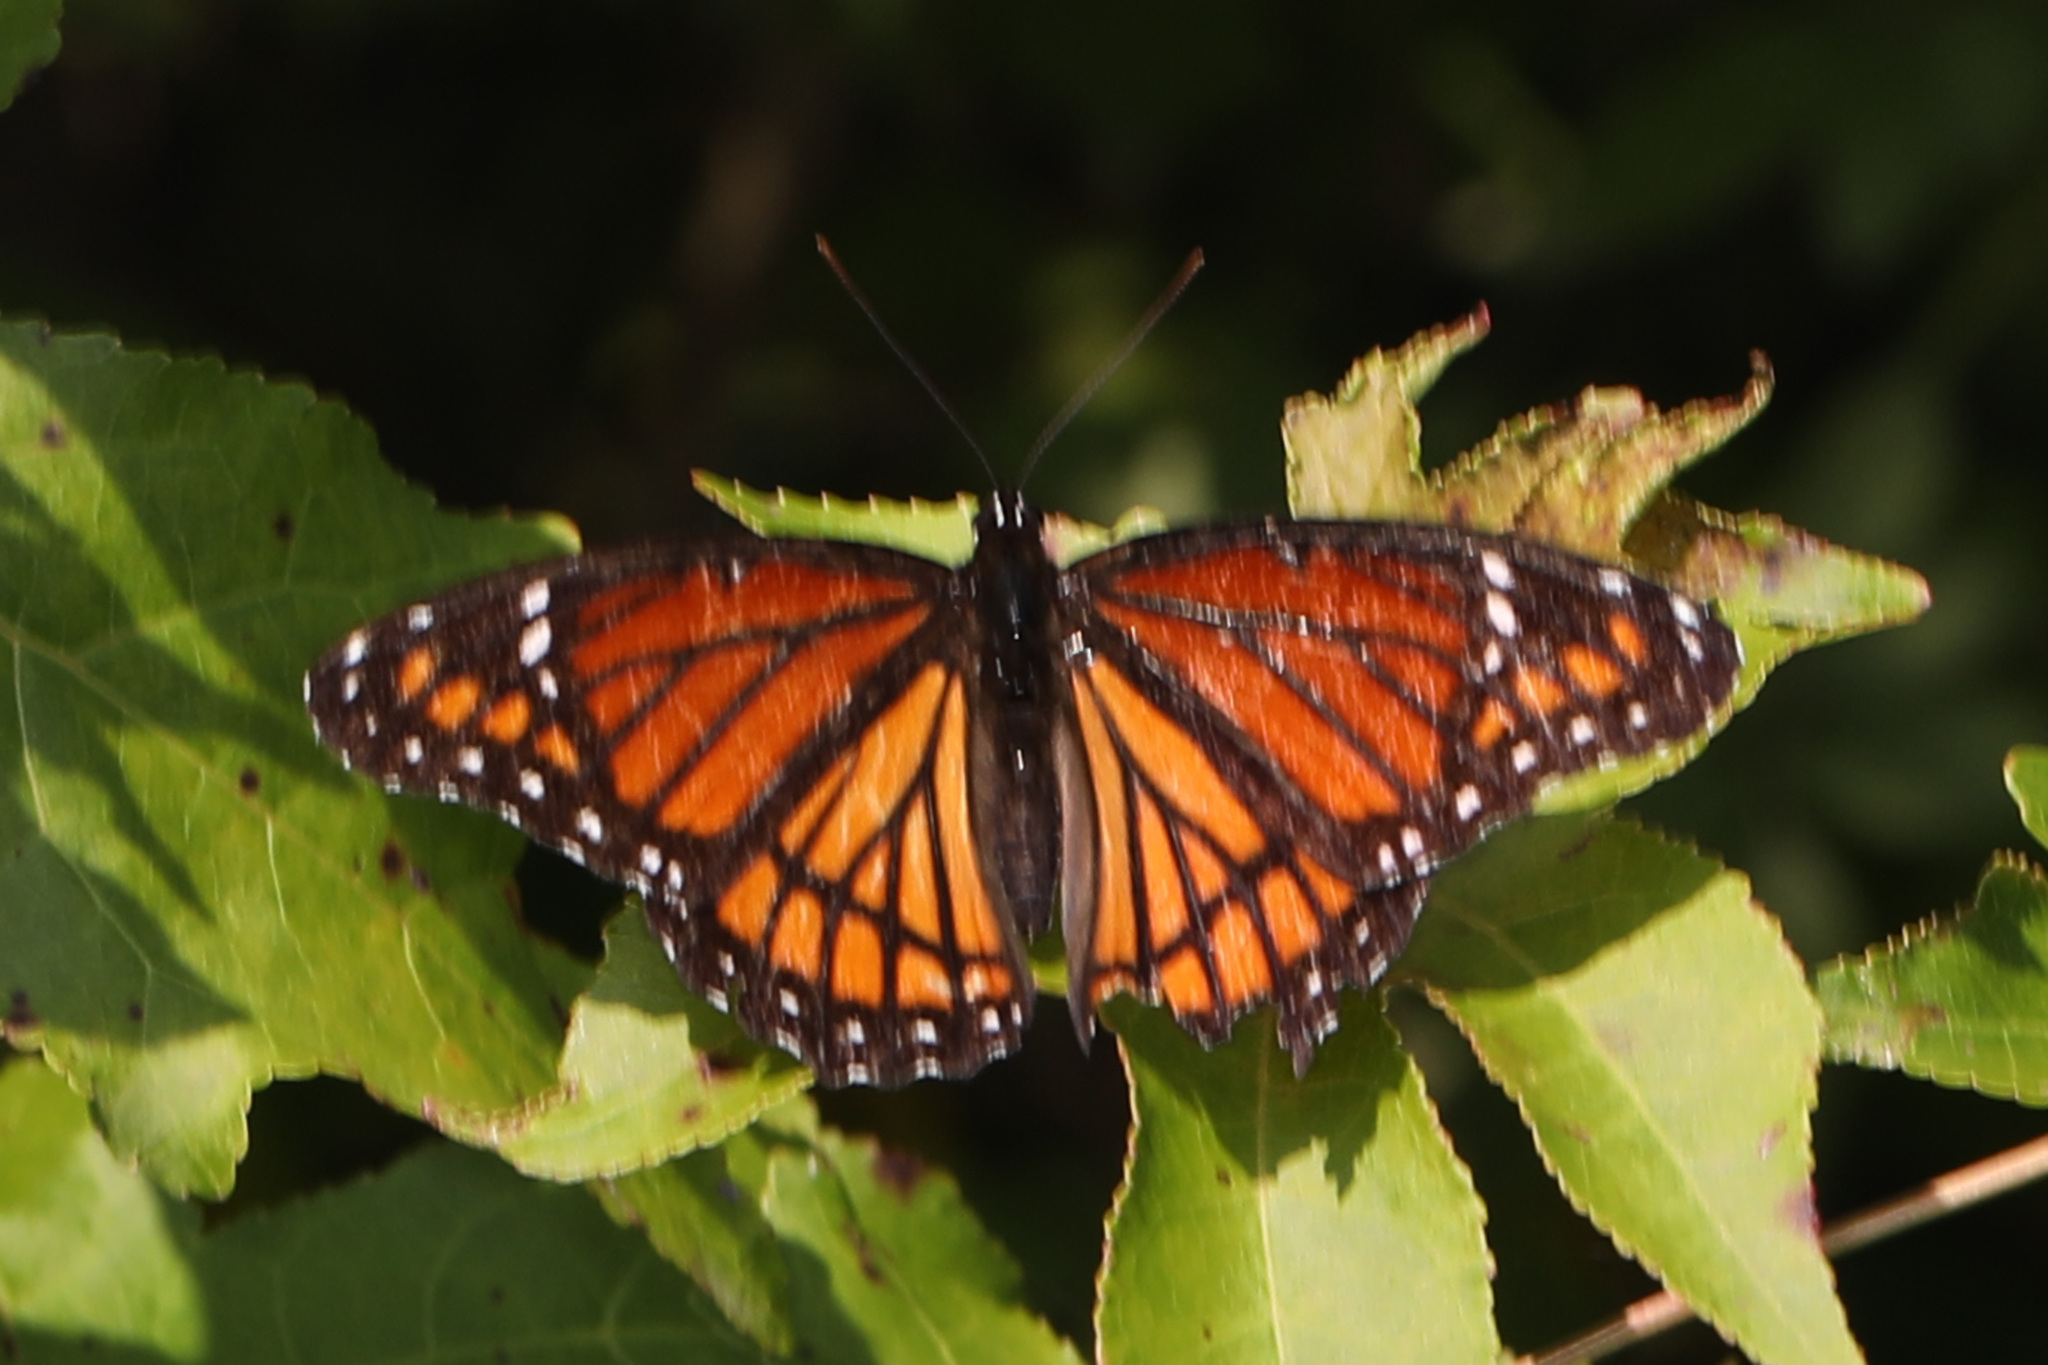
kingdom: Animalia
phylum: Arthropoda
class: Insecta
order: Lepidoptera
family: Nymphalidae
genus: Limenitis
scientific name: Limenitis archippus
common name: Viceroy
